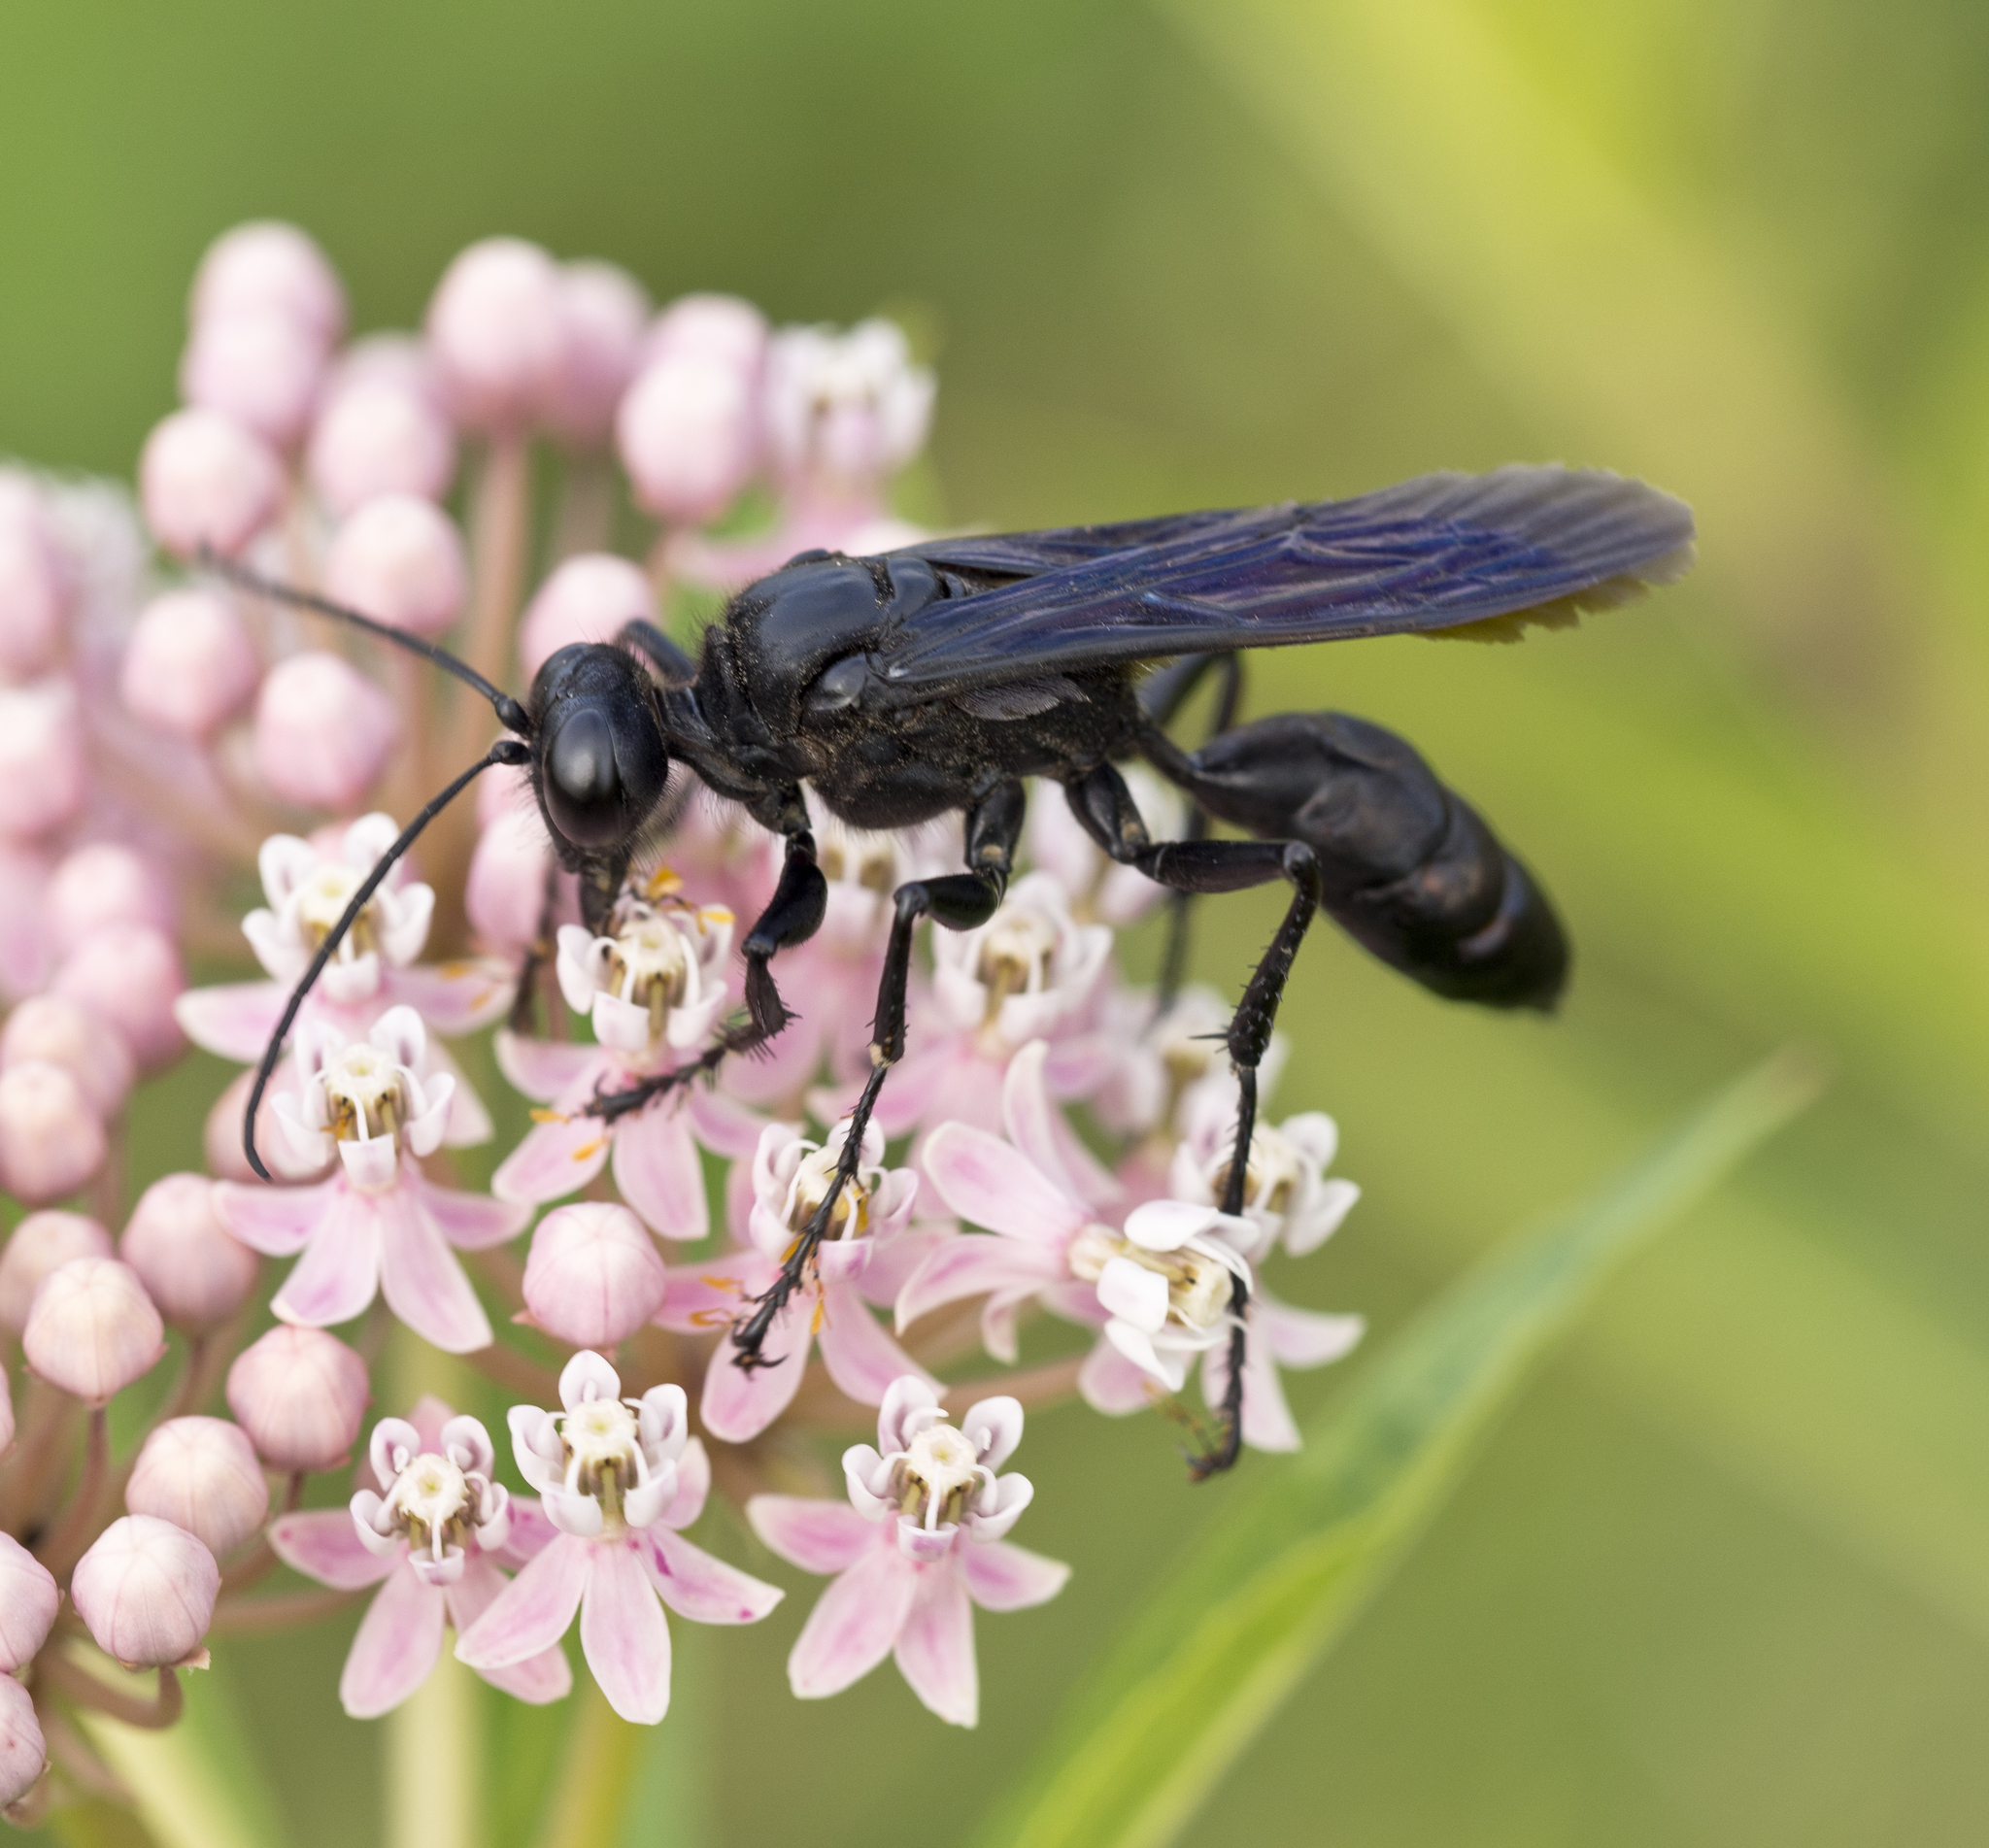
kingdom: Animalia
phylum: Arthropoda
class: Insecta
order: Hymenoptera
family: Sphecidae
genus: Sphex
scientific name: Sphex pensylvanicus
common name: Great black digger wasp
